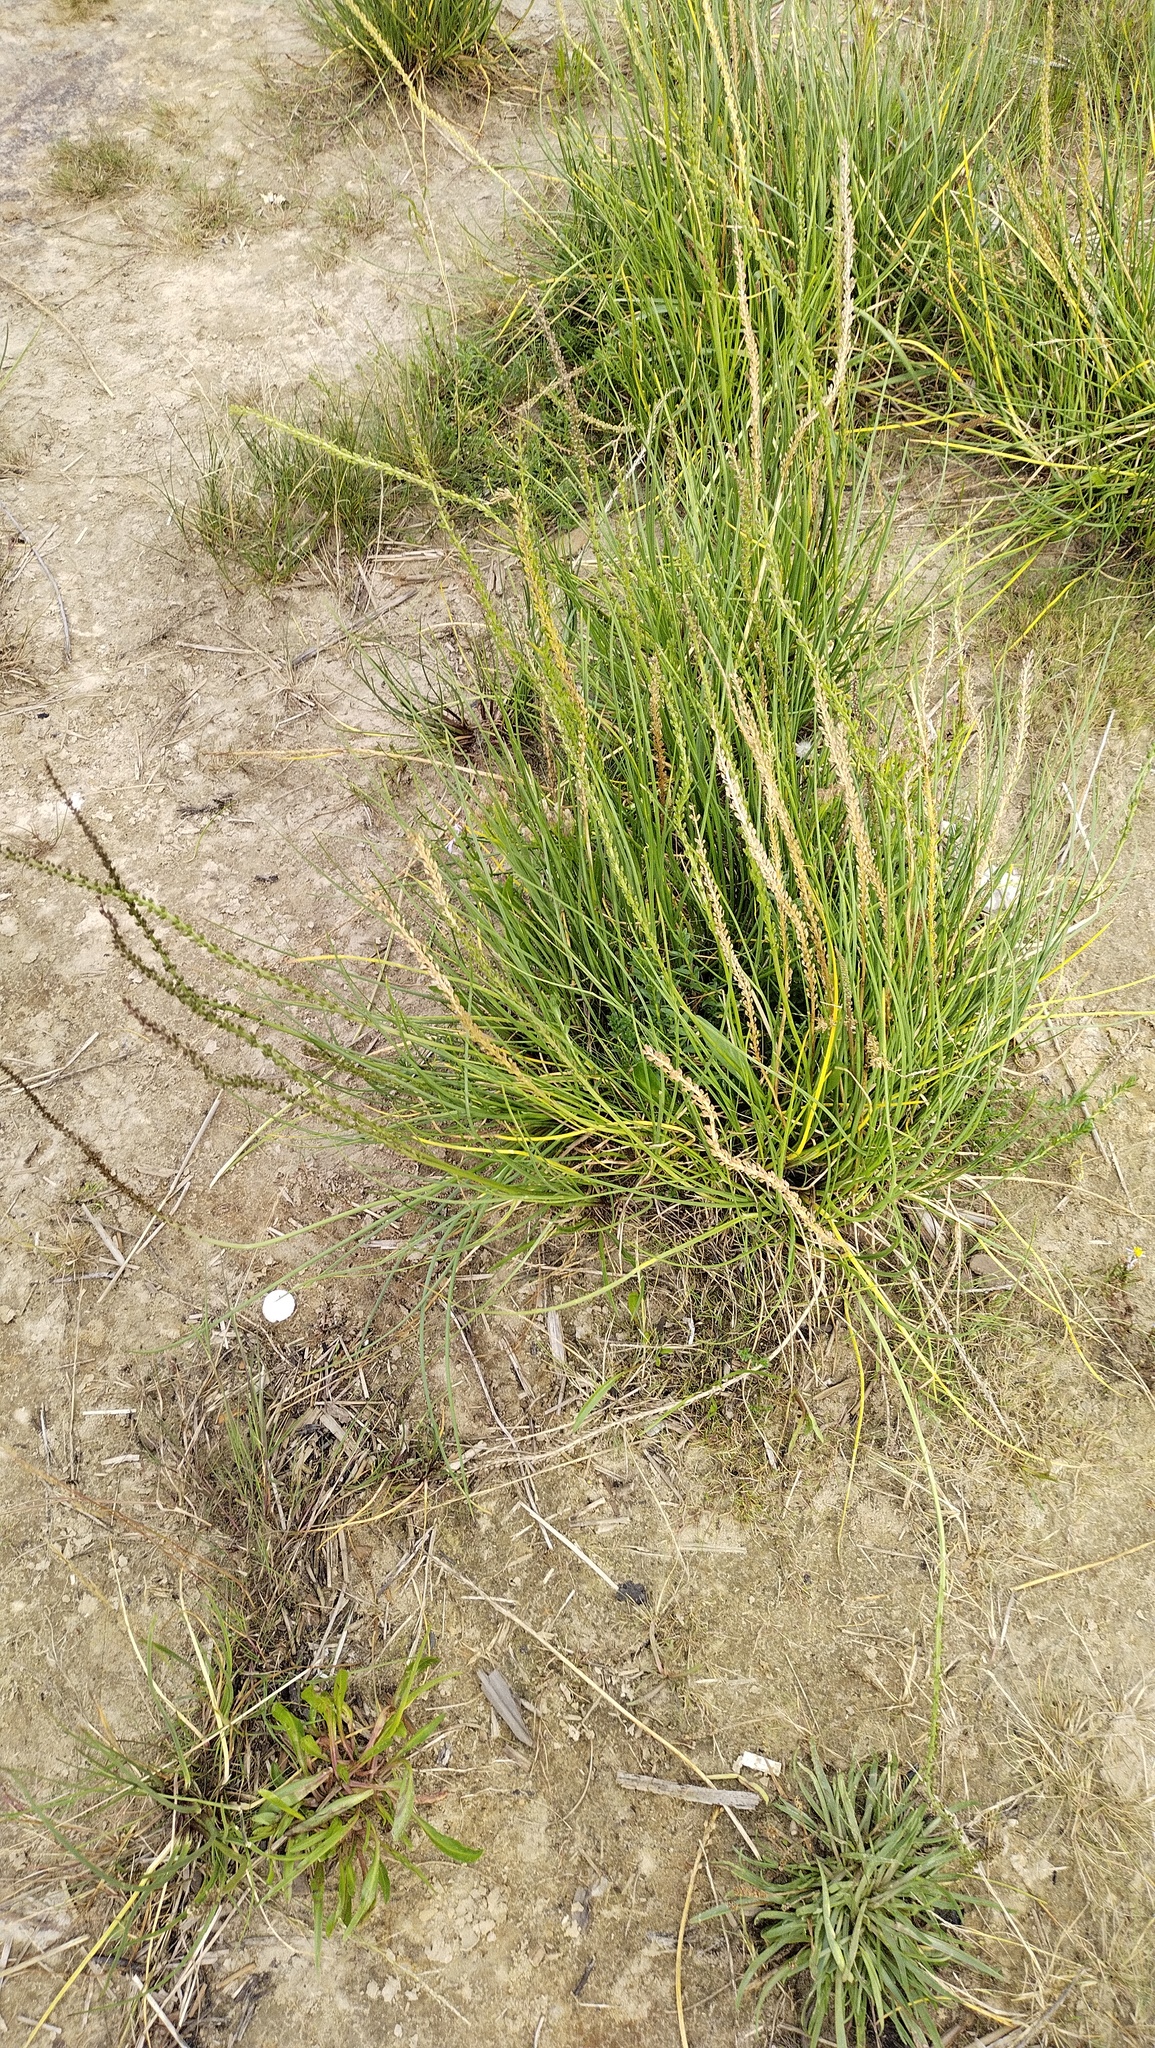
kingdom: Plantae
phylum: Tracheophyta
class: Liliopsida
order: Alismatales
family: Juncaginaceae
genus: Triglochin
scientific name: Triglochin maritima
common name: Sea arrowgrass
